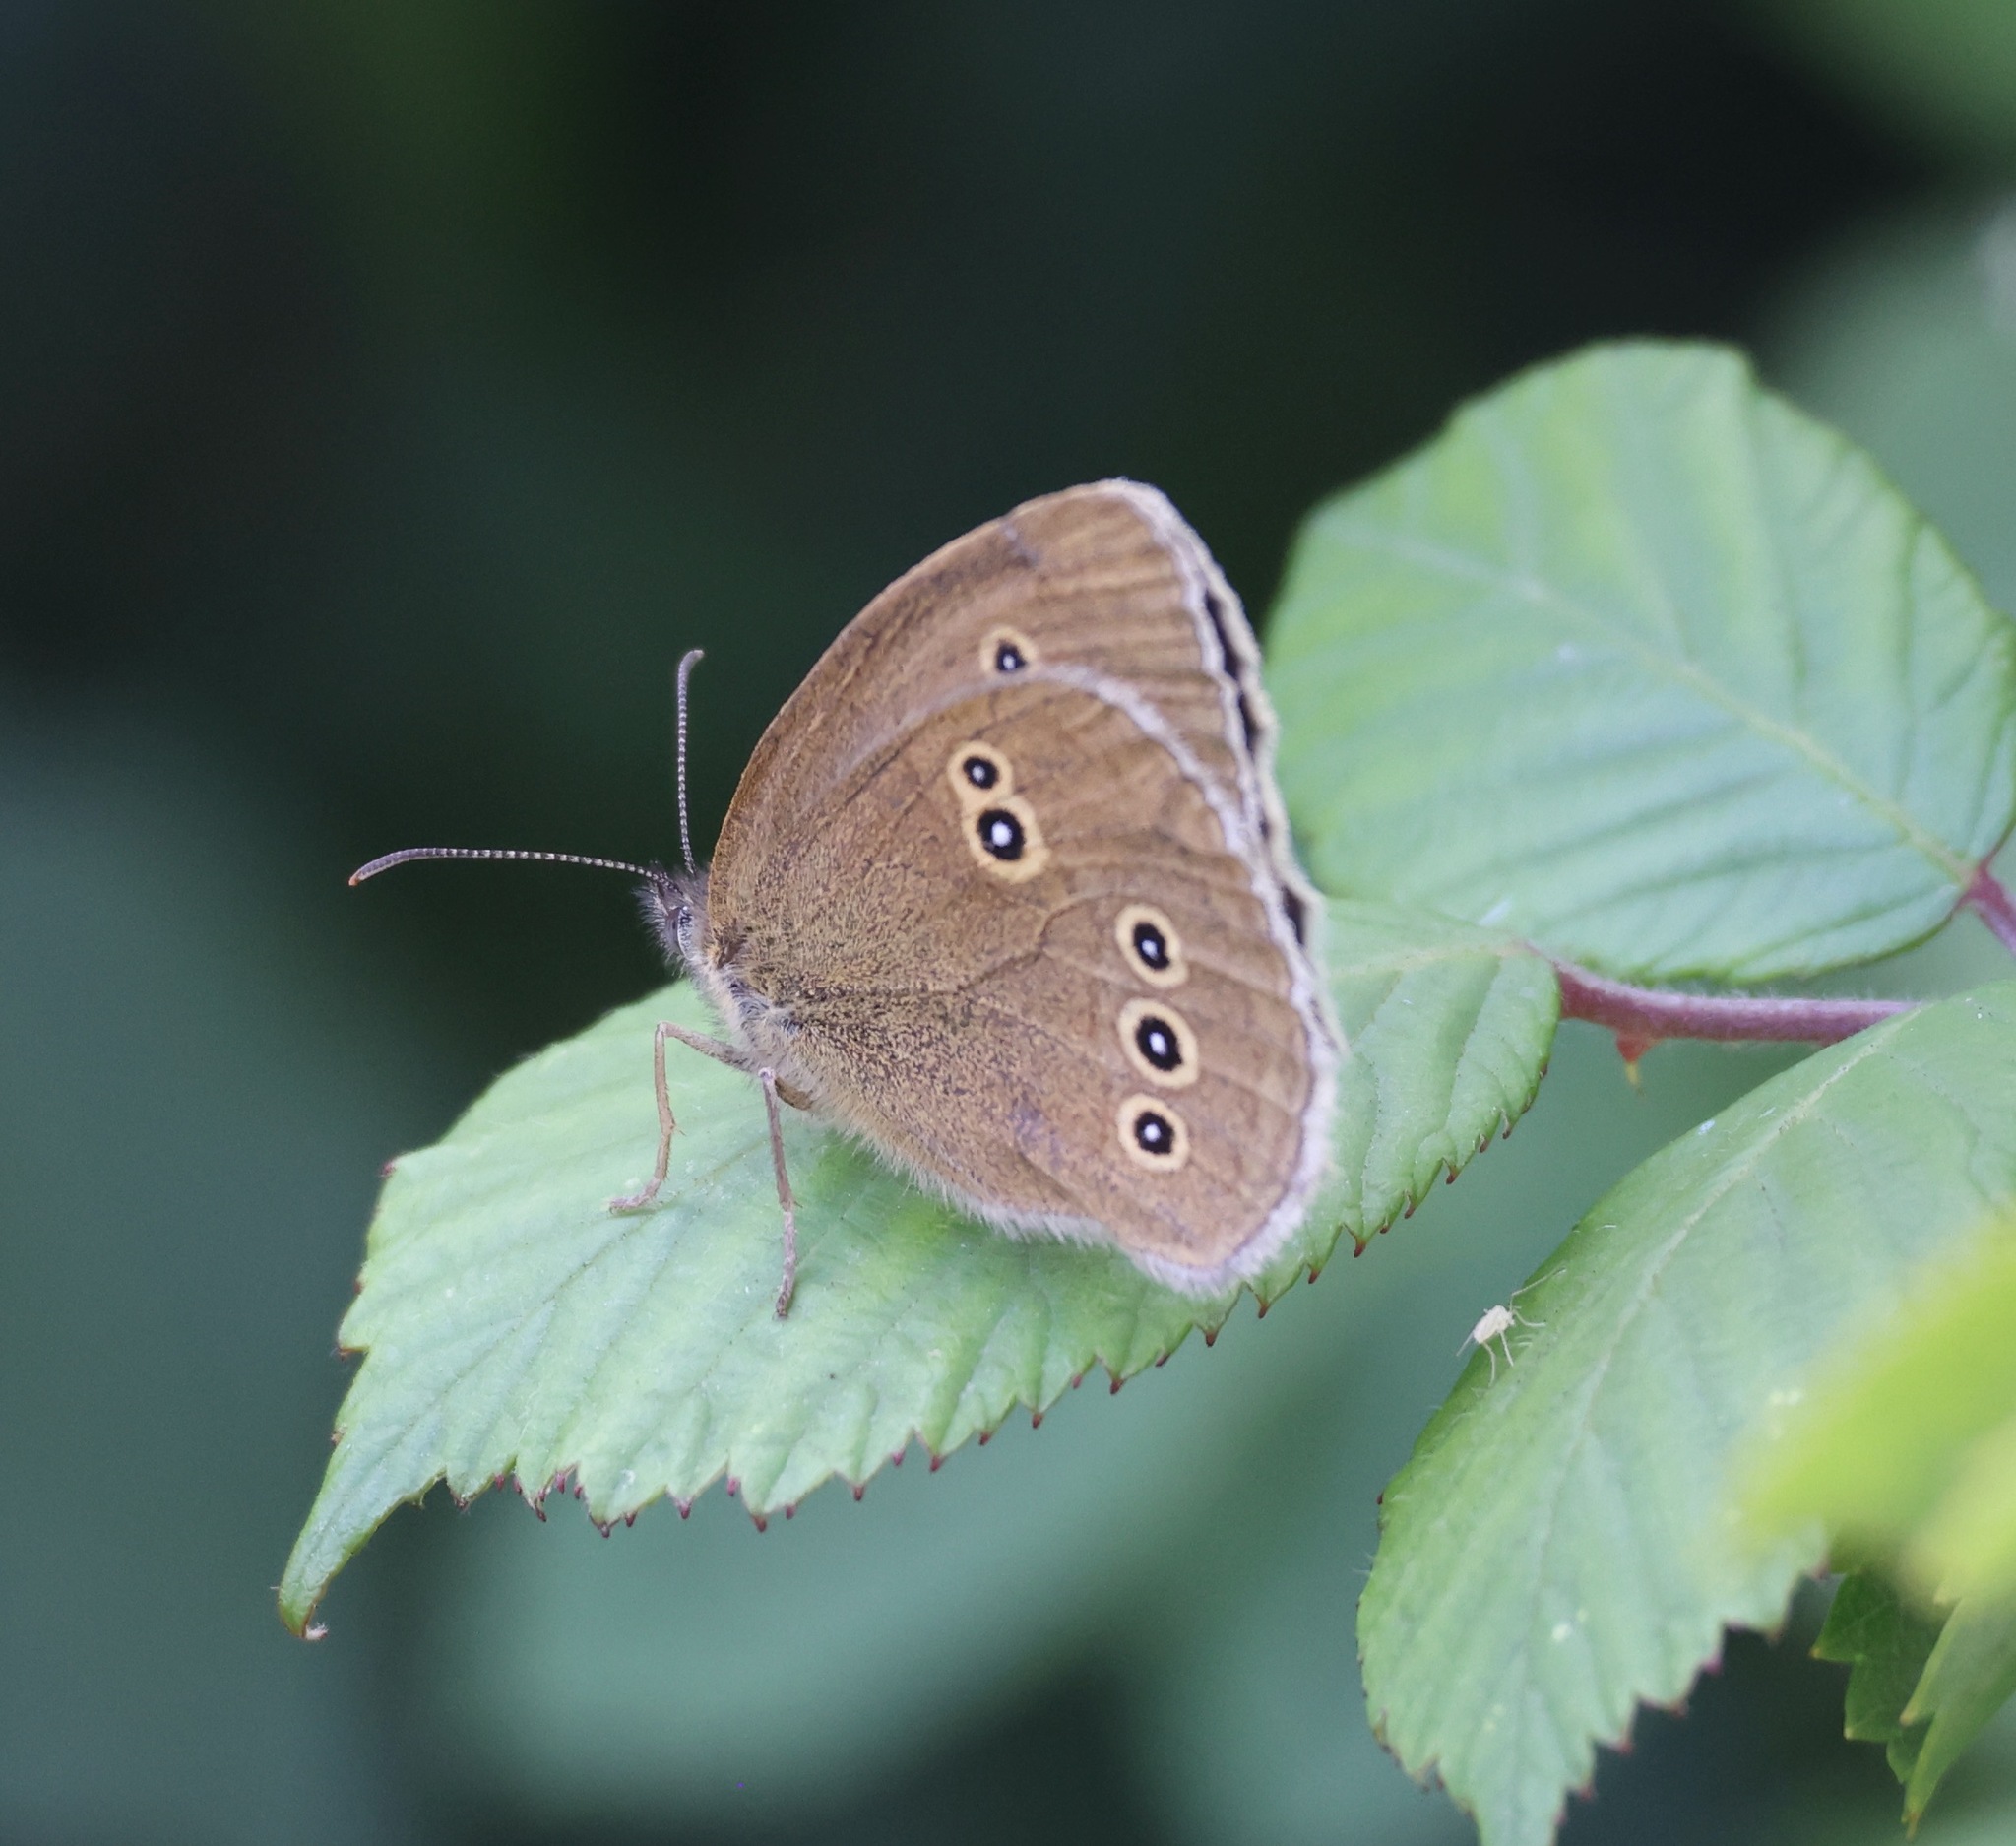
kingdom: Animalia
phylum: Arthropoda
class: Insecta
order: Lepidoptera
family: Nymphalidae
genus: Aphantopus
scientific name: Aphantopus hyperantus
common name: Ringlet
